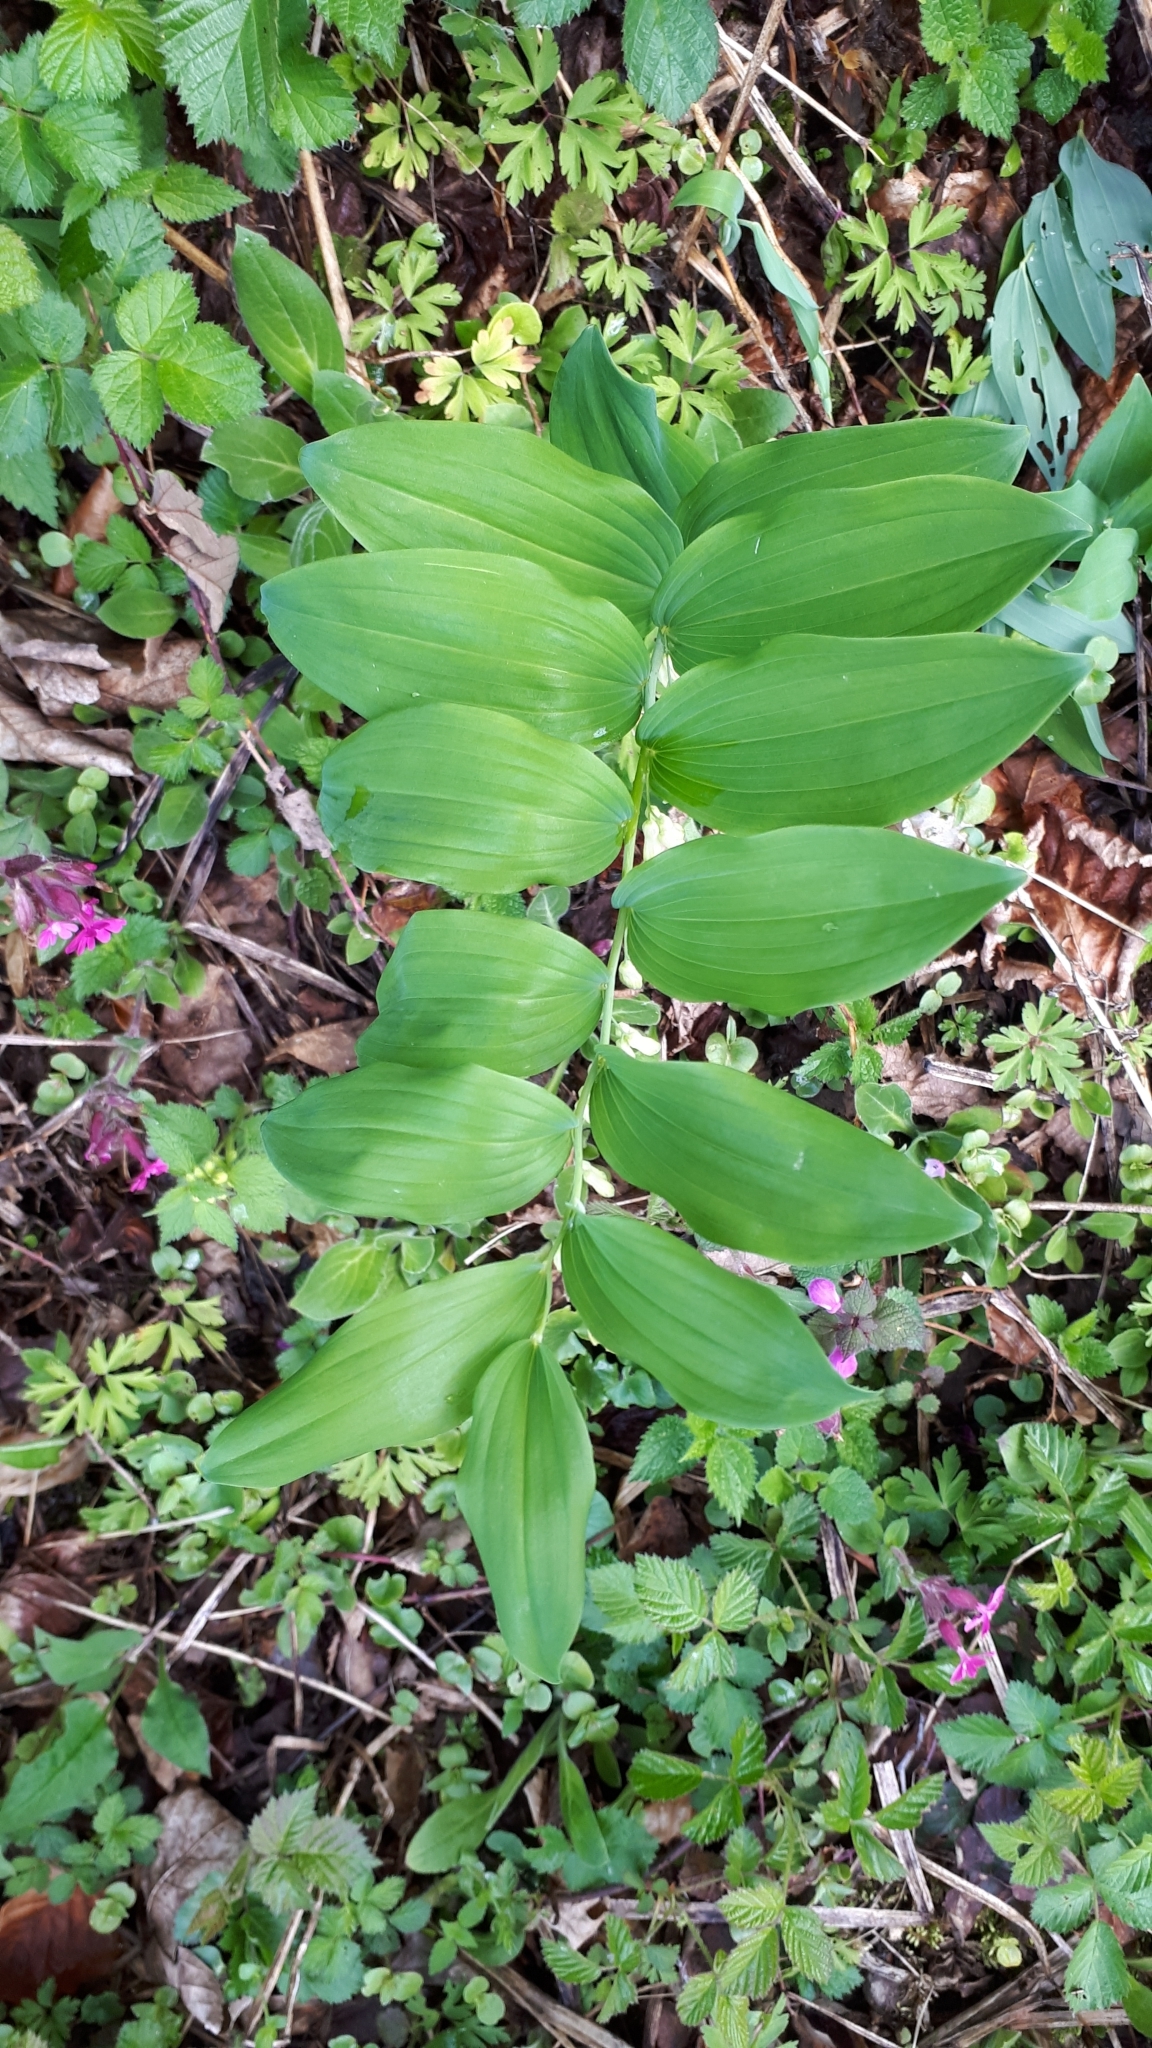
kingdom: Plantae
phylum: Tracheophyta
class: Liliopsida
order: Asparagales
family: Asparagaceae
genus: Polygonatum
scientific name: Polygonatum multiflorum
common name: Solomon's-seal
